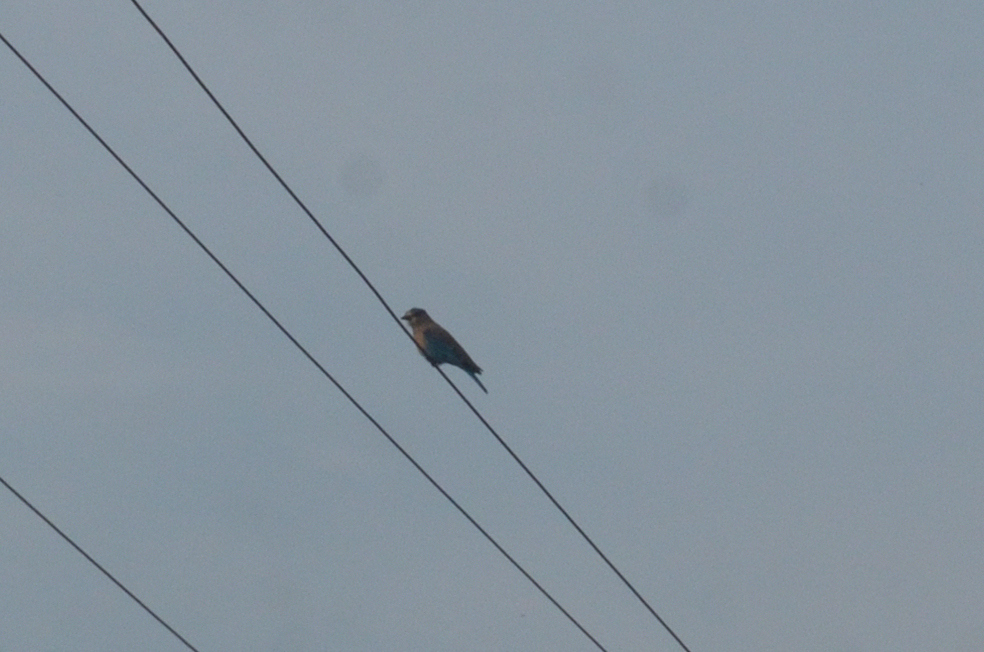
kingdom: Animalia
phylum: Chordata
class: Aves
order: Coraciiformes
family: Coraciidae
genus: Coracias
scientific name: Coracias benghalensis
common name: Indian roller
